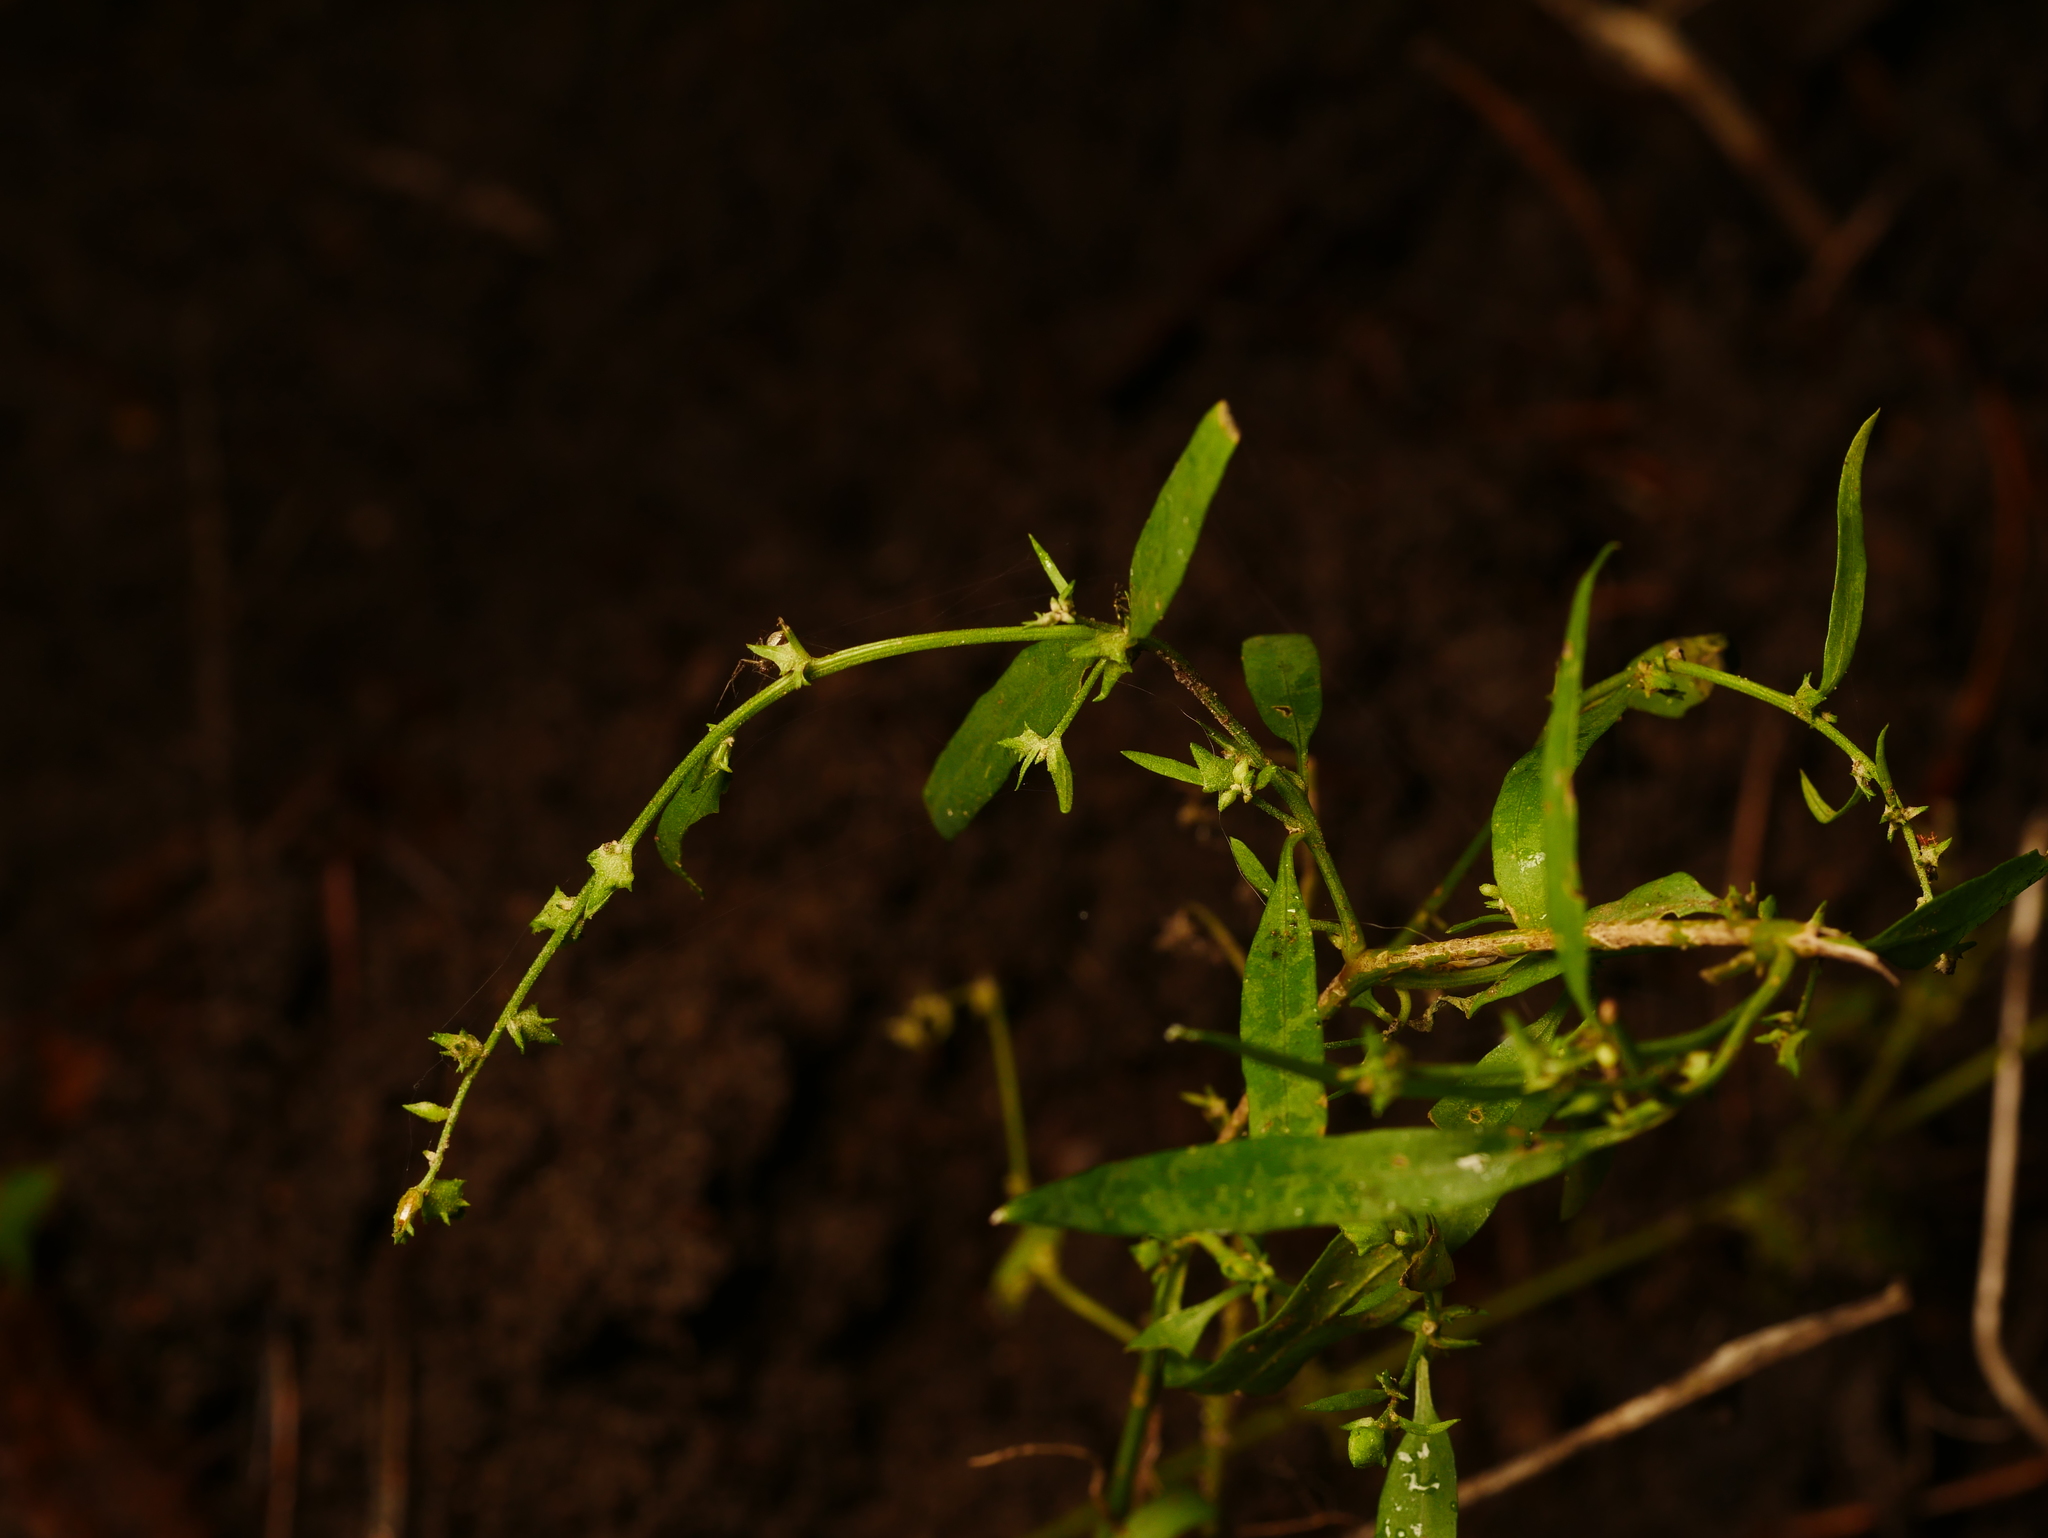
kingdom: Plantae
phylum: Tracheophyta
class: Magnoliopsida
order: Caryophyllales
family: Amaranthaceae
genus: Atriplex
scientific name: Atriplex patula
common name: Common orache
